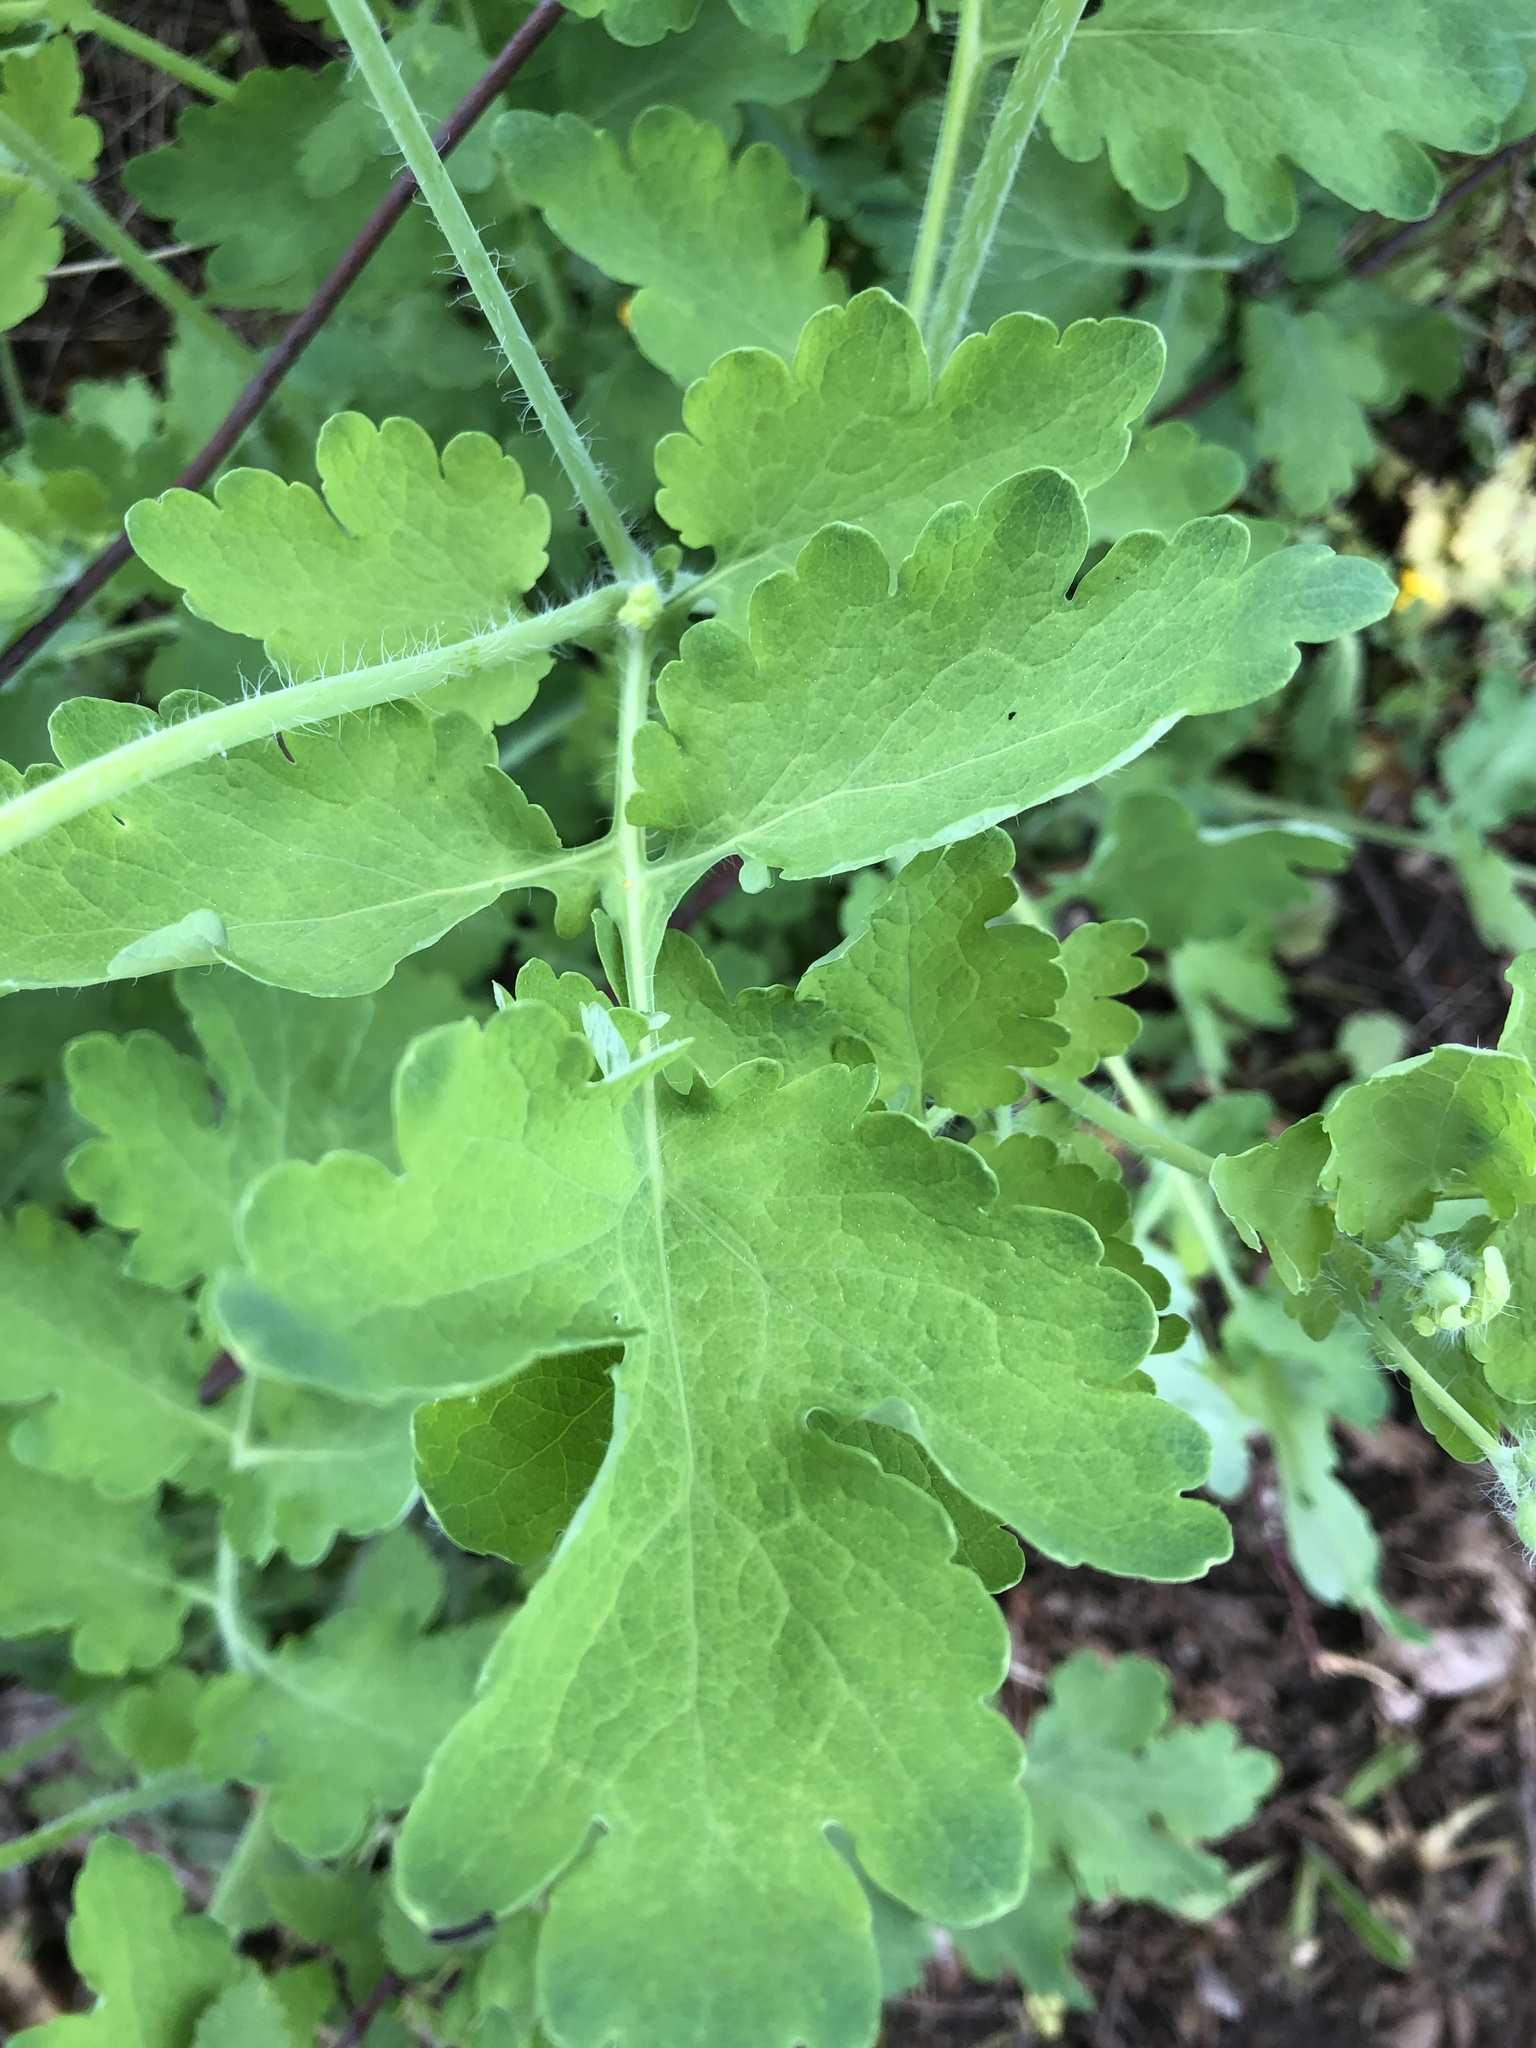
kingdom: Plantae
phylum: Tracheophyta
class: Magnoliopsida
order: Ranunculales
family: Papaveraceae
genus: Chelidonium
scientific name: Chelidonium majus
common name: Greater celandine
